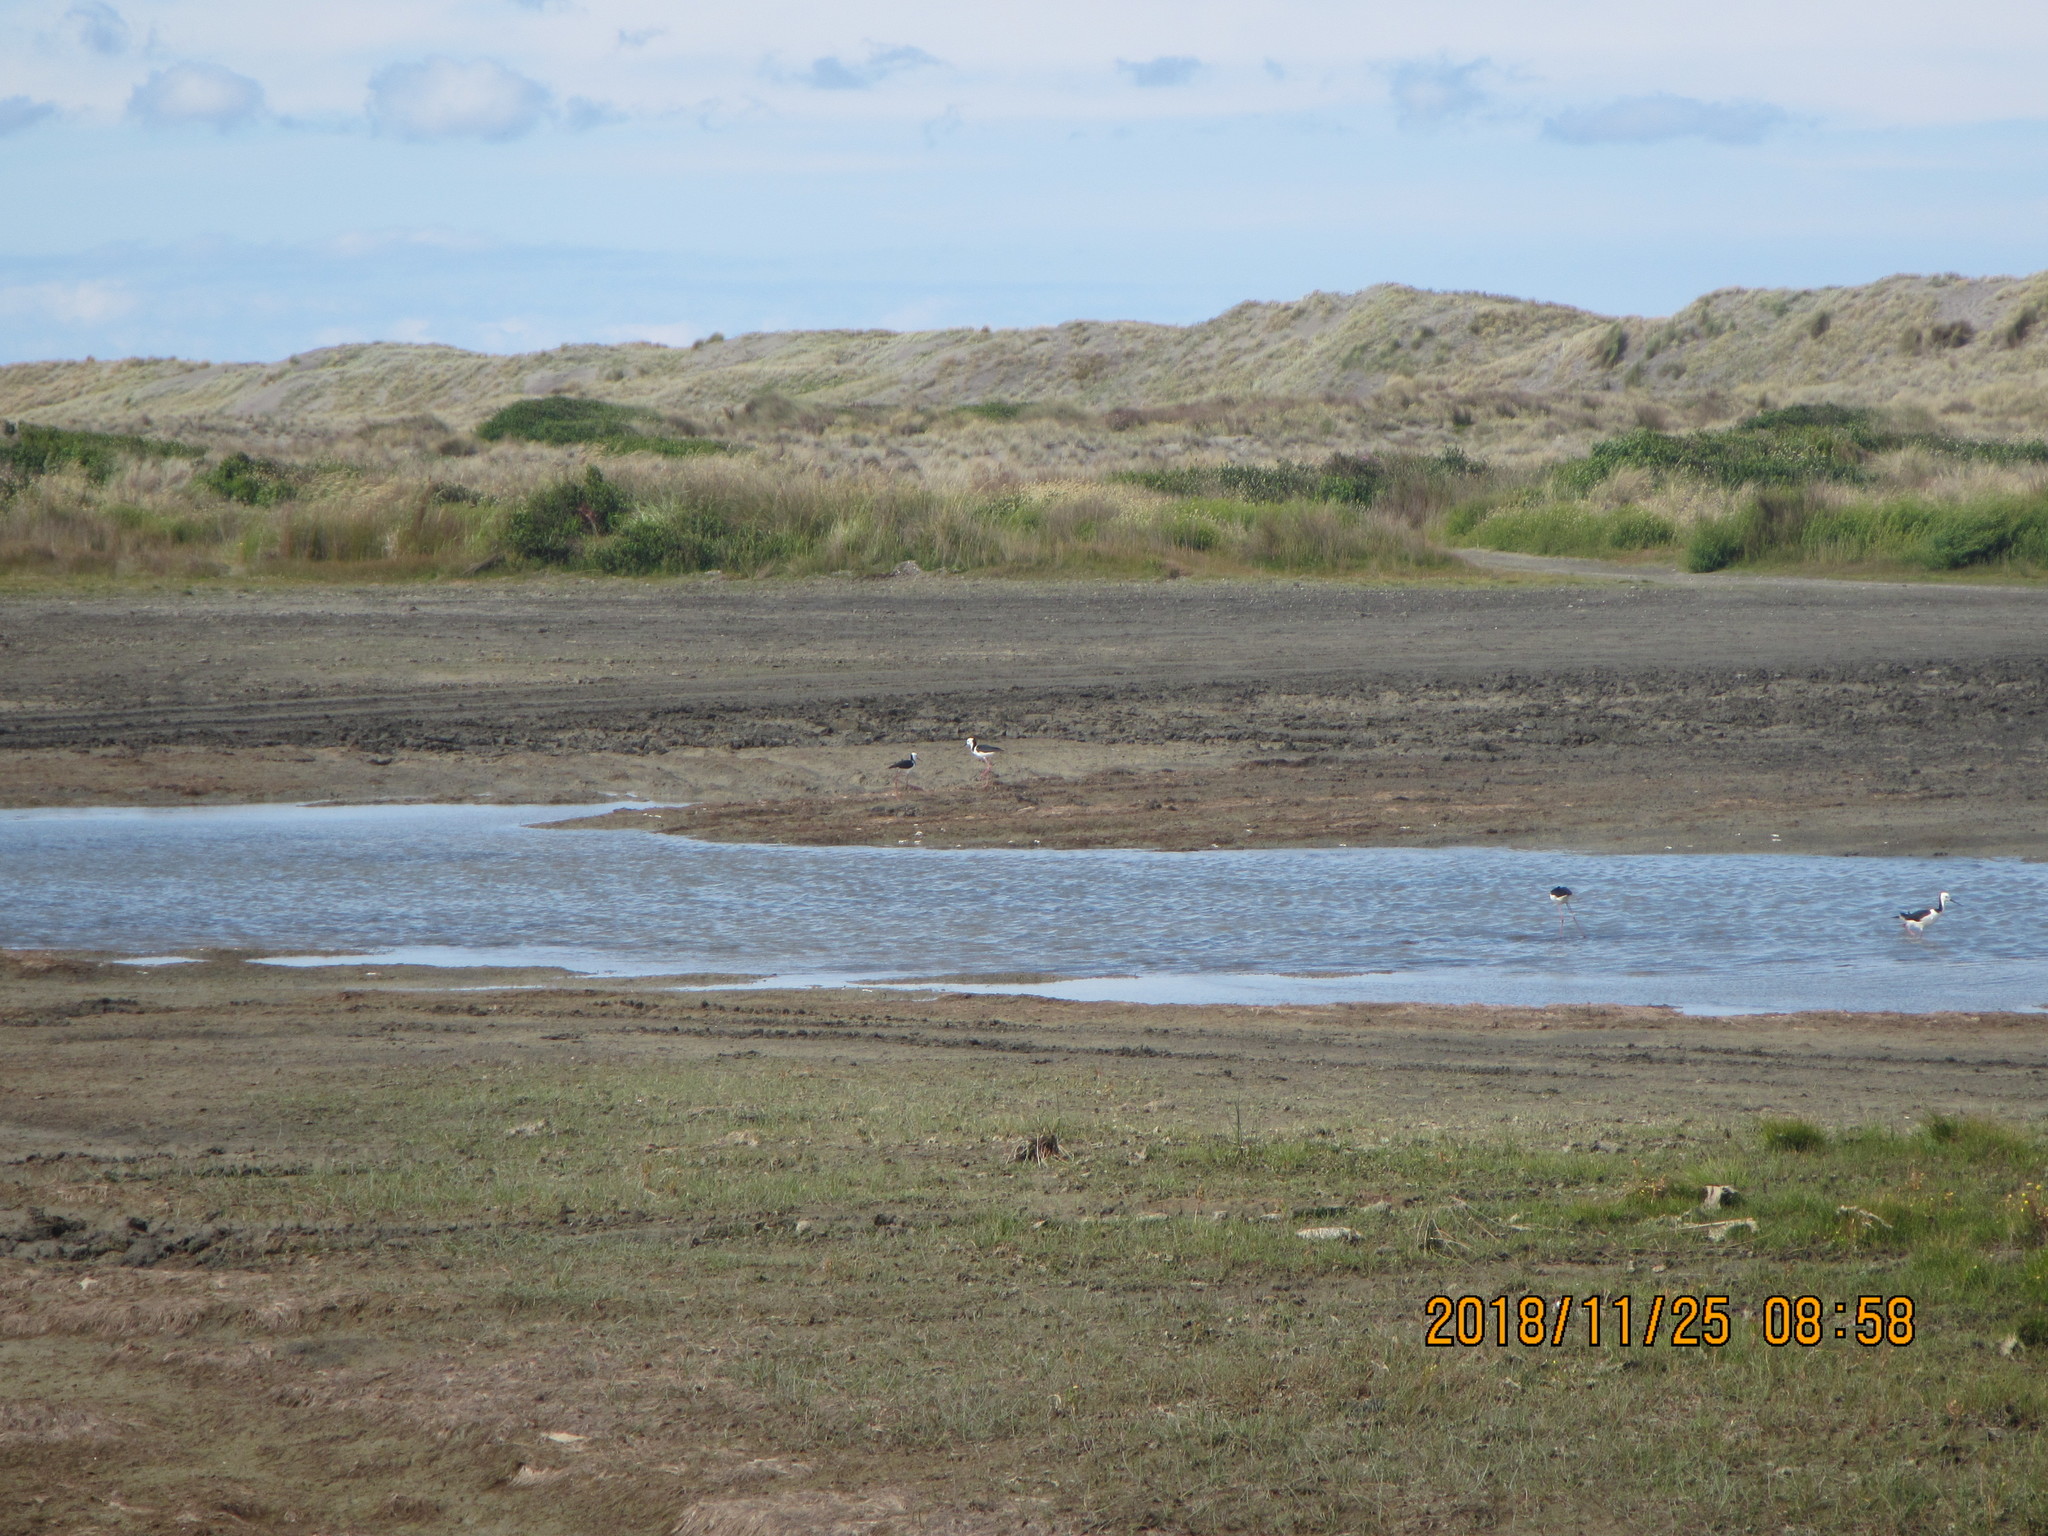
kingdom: Animalia
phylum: Chordata
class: Aves
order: Charadriiformes
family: Recurvirostridae
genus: Himantopus
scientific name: Himantopus leucocephalus
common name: White-headed stilt
